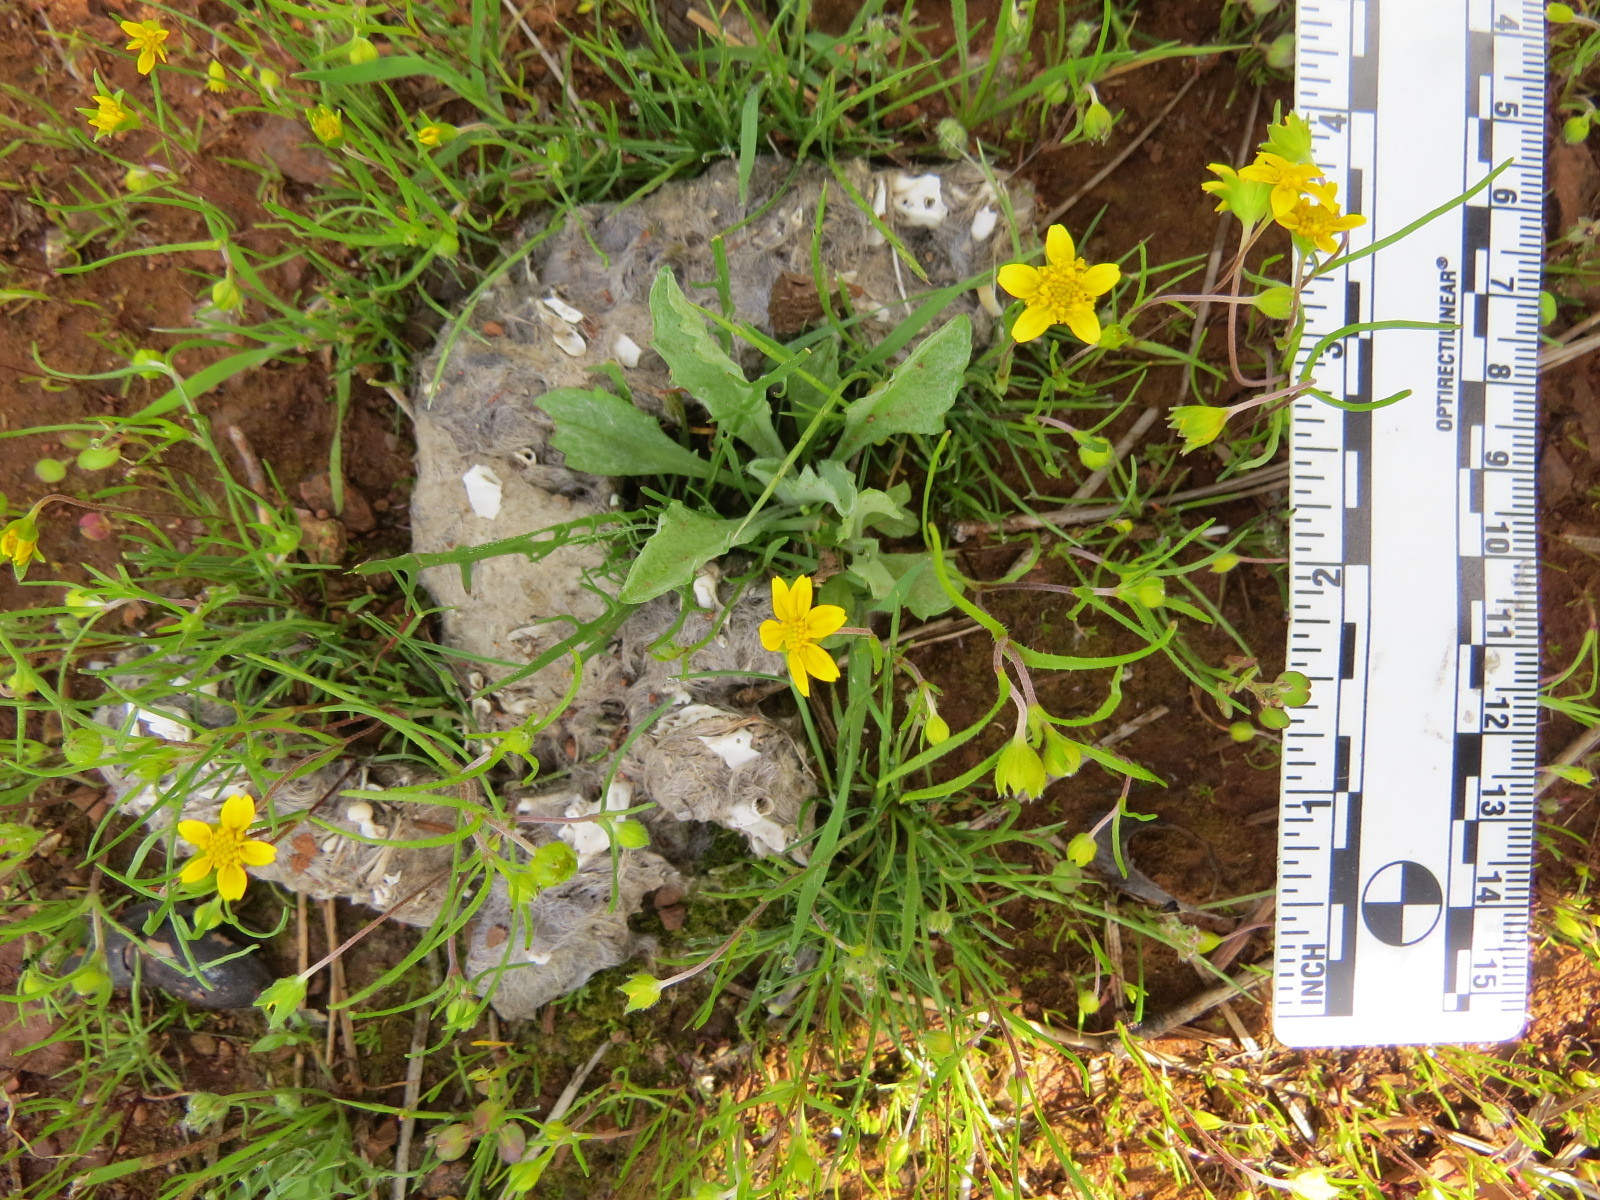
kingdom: Animalia
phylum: Chordata
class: Mammalia
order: Carnivora
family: Canidae
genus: Canis
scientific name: Canis latrans
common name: Coyote
